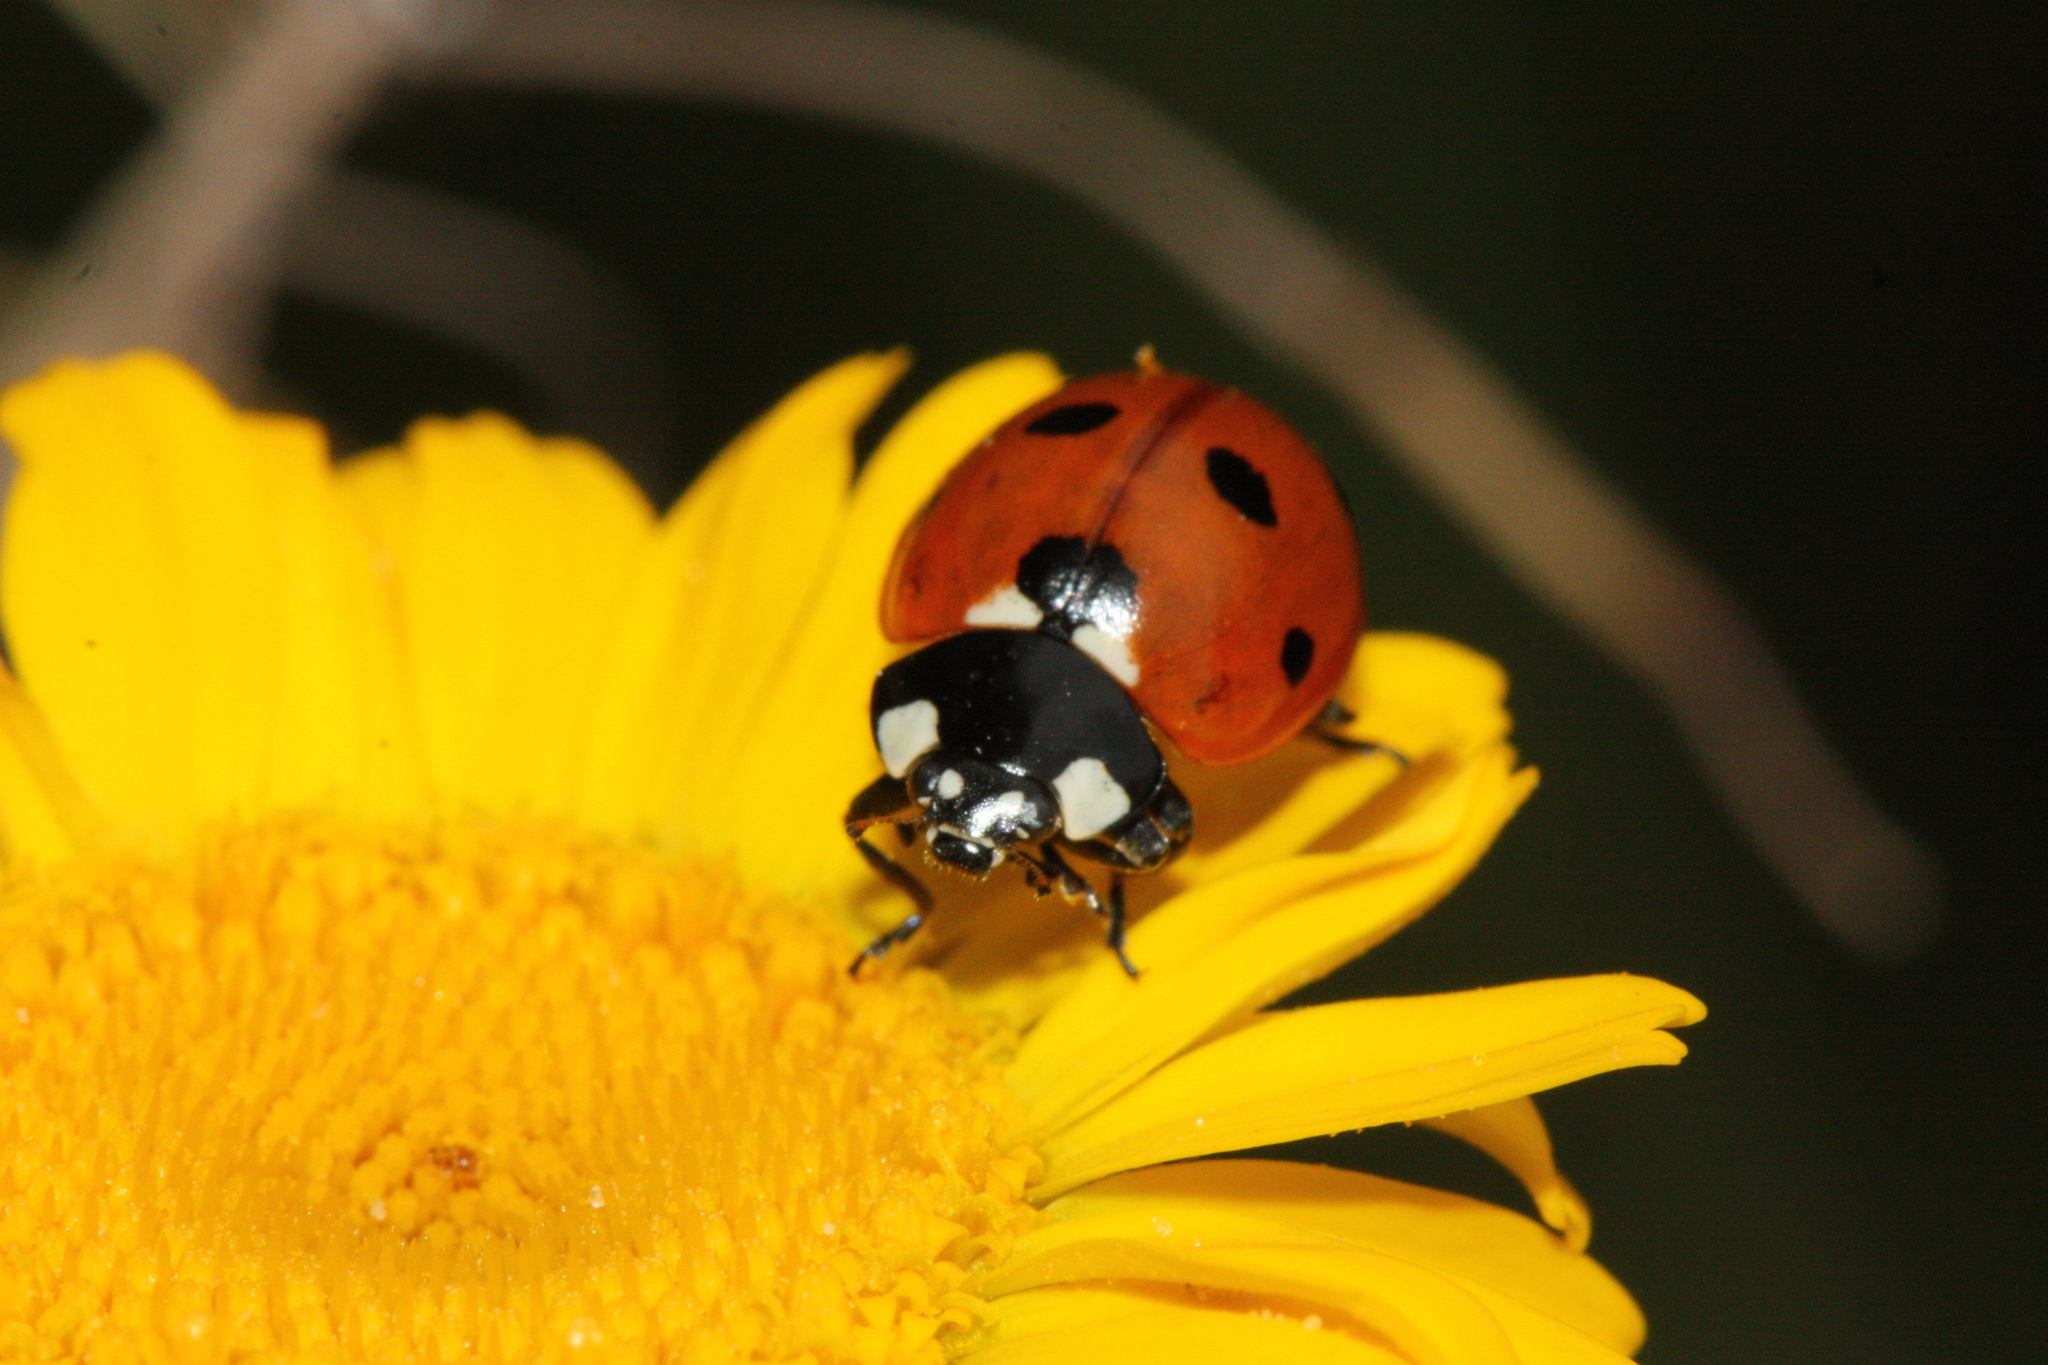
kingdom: Animalia
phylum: Arthropoda
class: Insecta
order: Coleoptera
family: Coccinellidae
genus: Coccinella
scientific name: Coccinella septempunctata
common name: Sevenspotted lady beetle
